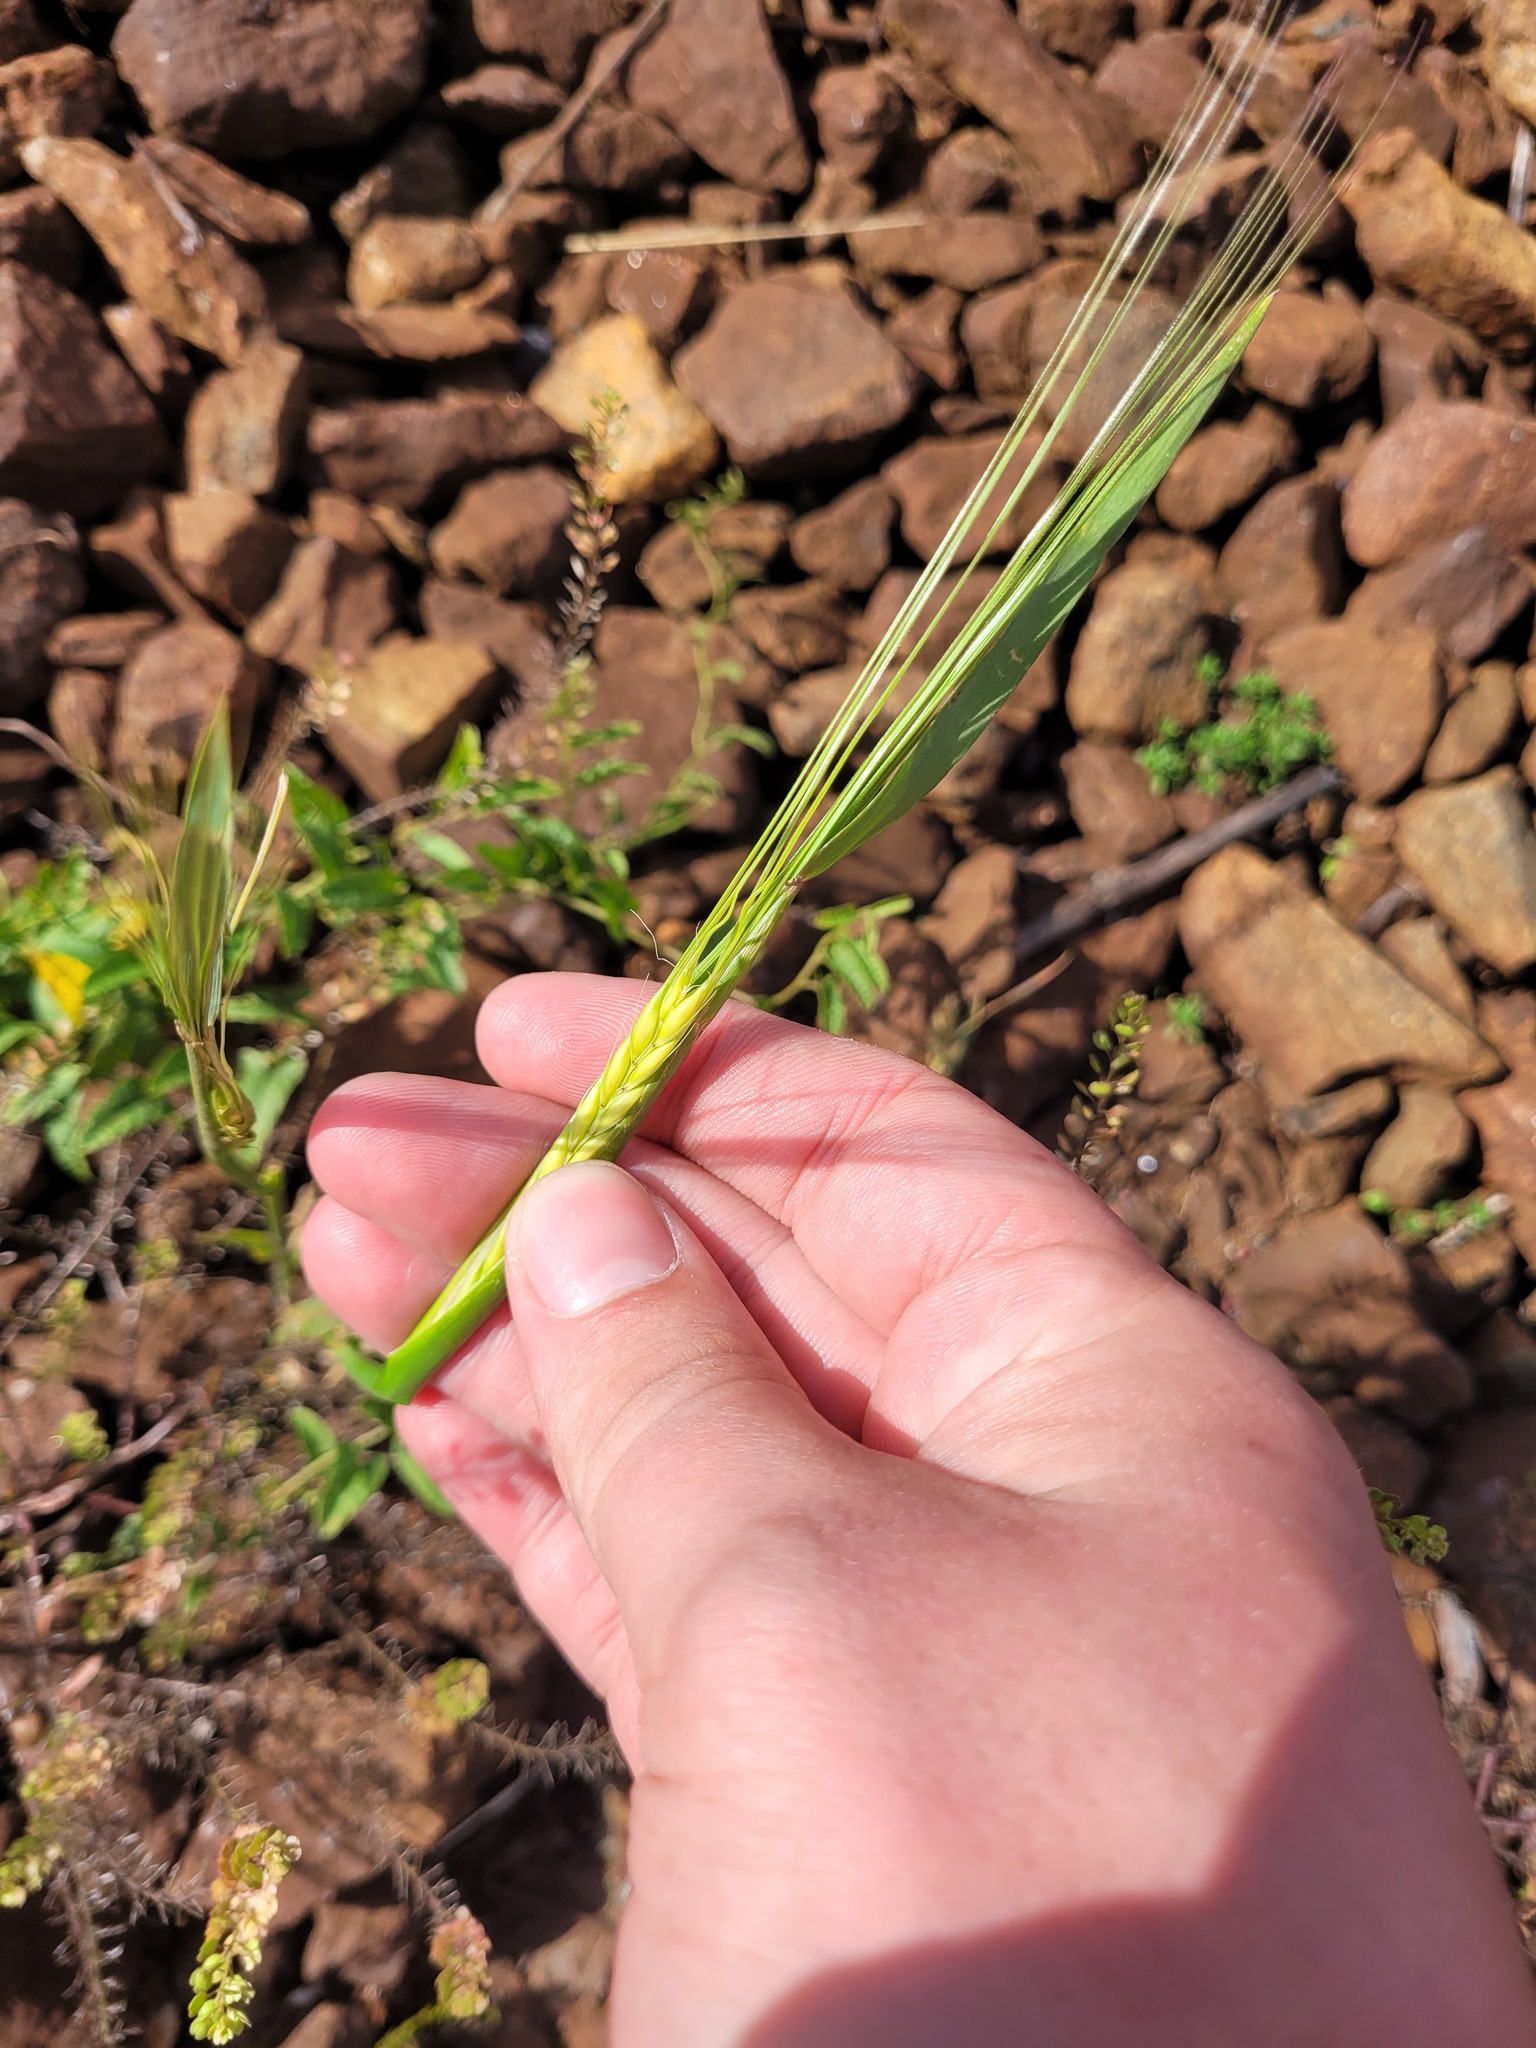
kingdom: Plantae
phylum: Tracheophyta
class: Liliopsida
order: Poales
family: Poaceae
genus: Hordeum
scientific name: Hordeum vulgare
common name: Common barley
